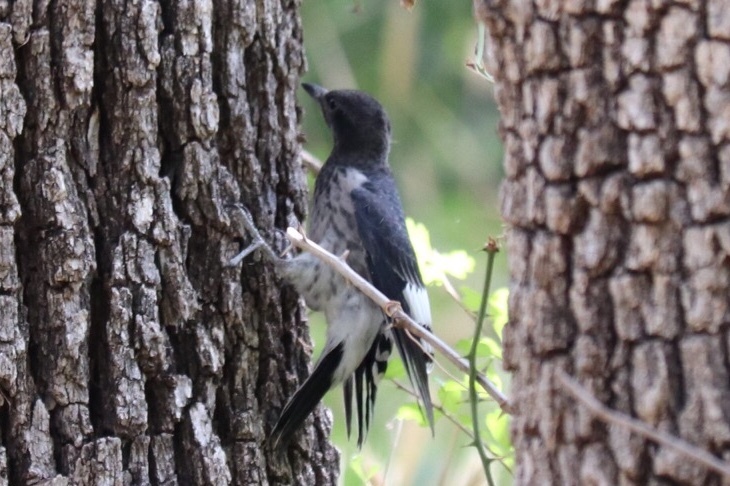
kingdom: Animalia
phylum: Chordata
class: Aves
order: Piciformes
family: Picidae
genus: Melanerpes
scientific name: Melanerpes erythrocephalus
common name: Red-headed woodpecker
